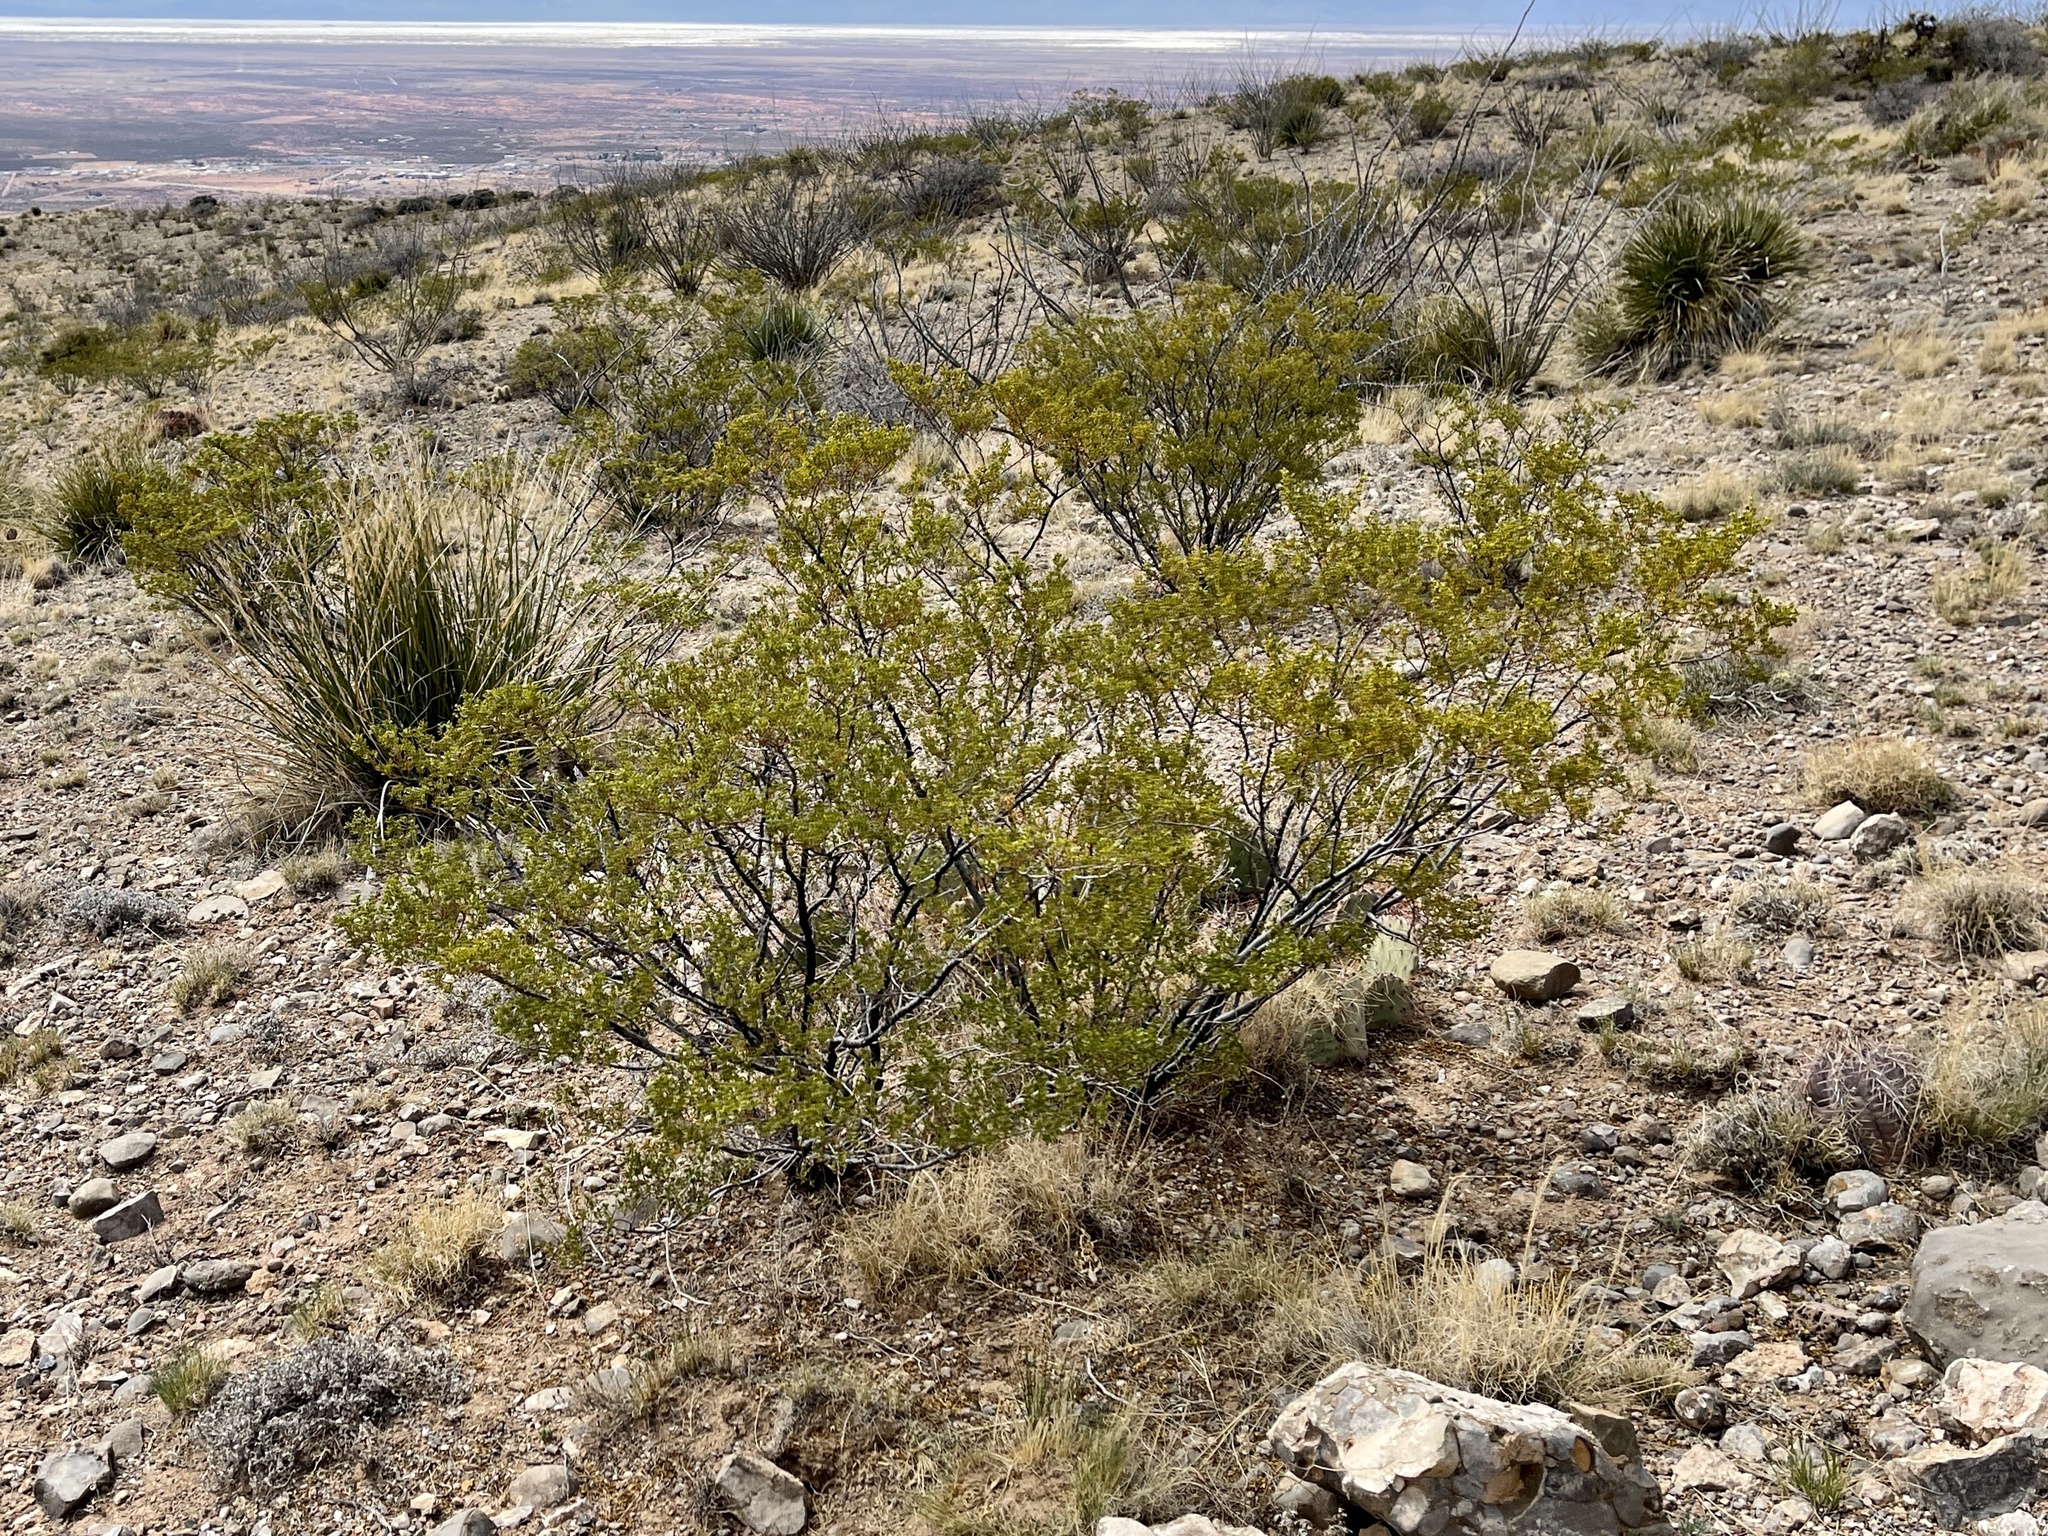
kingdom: Plantae
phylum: Tracheophyta
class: Magnoliopsida
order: Zygophyllales
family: Zygophyllaceae
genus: Larrea
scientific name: Larrea tridentata
